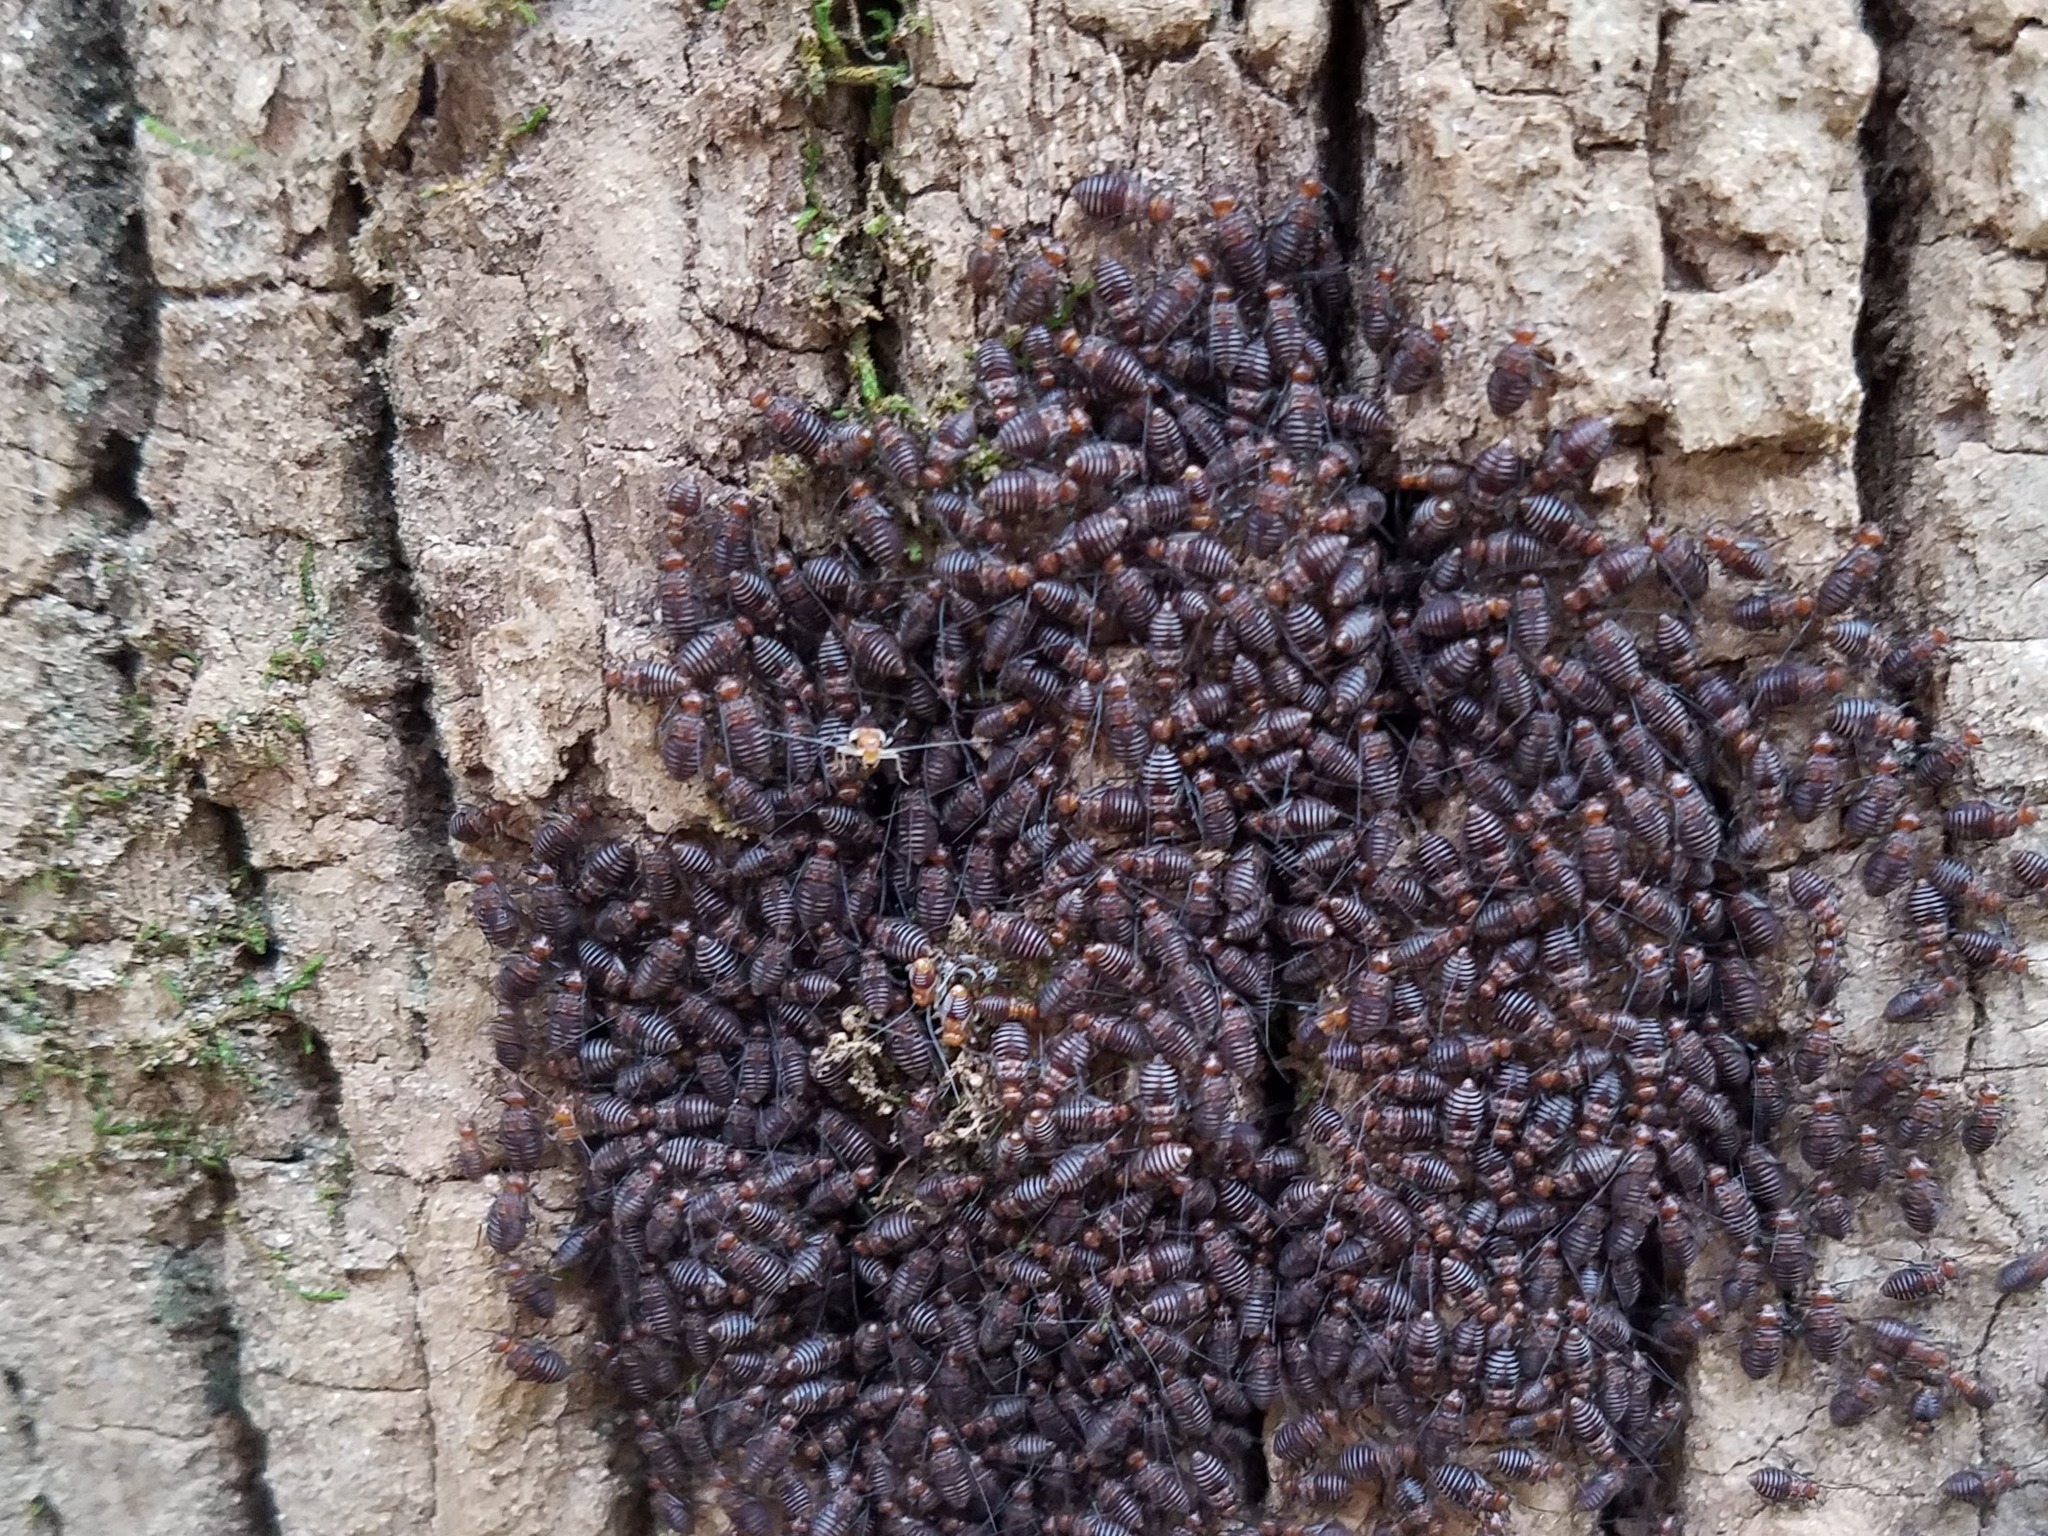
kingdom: Animalia
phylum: Arthropoda
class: Insecta
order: Psocodea
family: Psocidae
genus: Cerastipsocus
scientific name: Cerastipsocus trifasciatus
